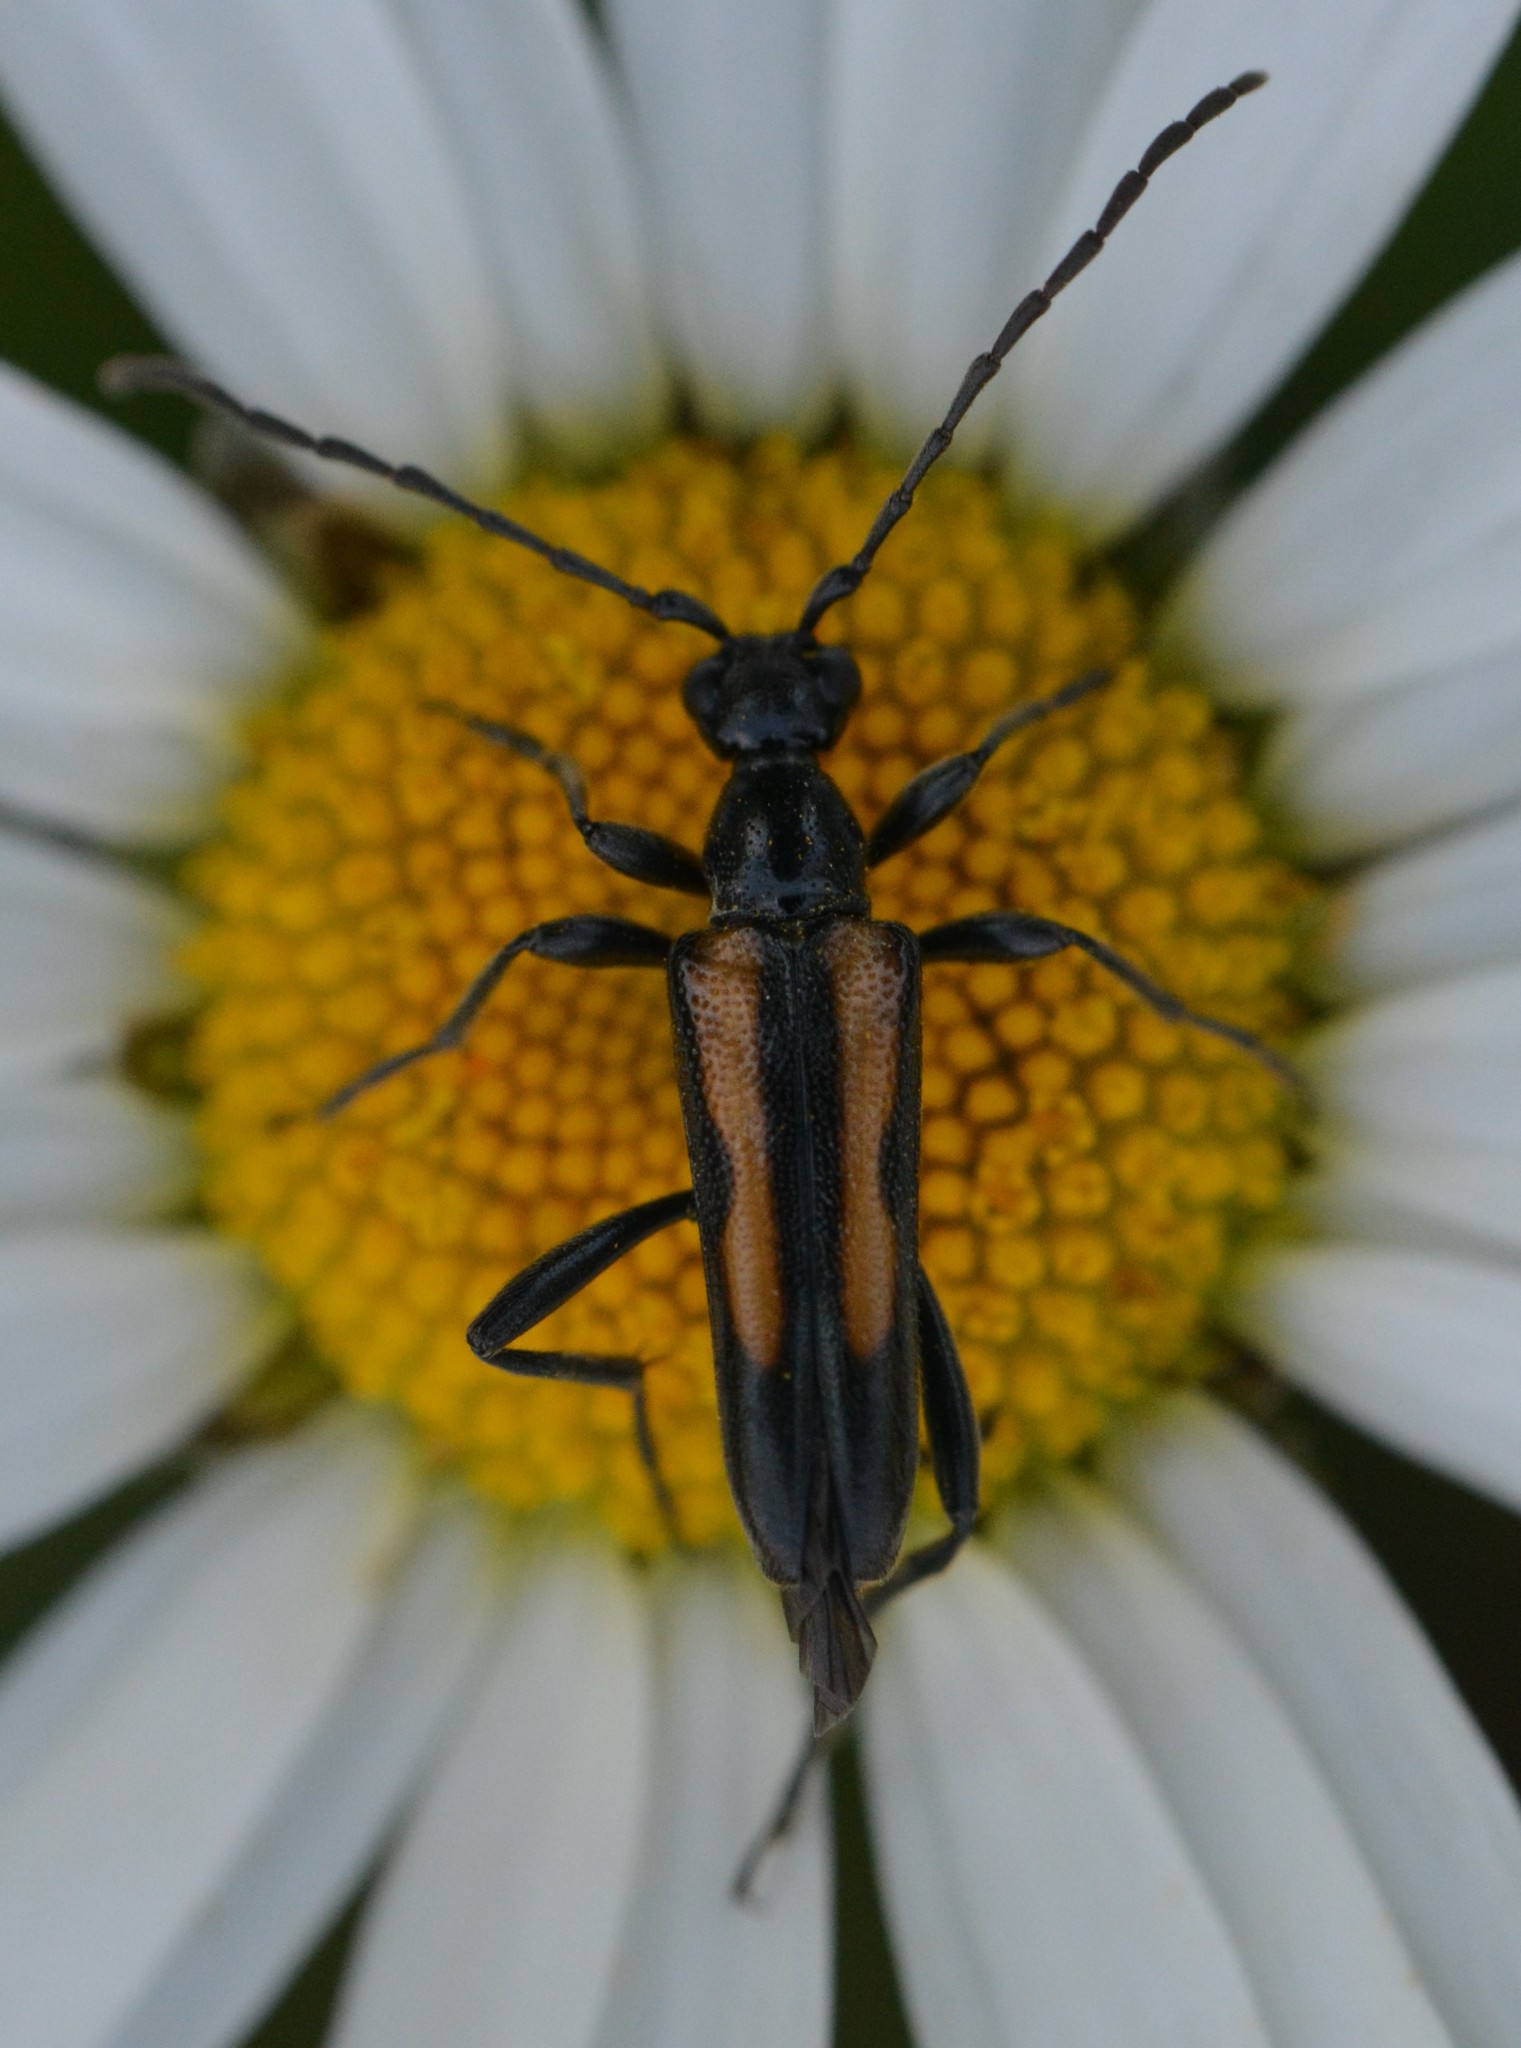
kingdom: Animalia
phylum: Arthropoda
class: Insecta
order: Coleoptera
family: Cerambycidae
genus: Strangalepta
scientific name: Strangalepta abbreviata
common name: Strangalepta flower longhorn beetle
